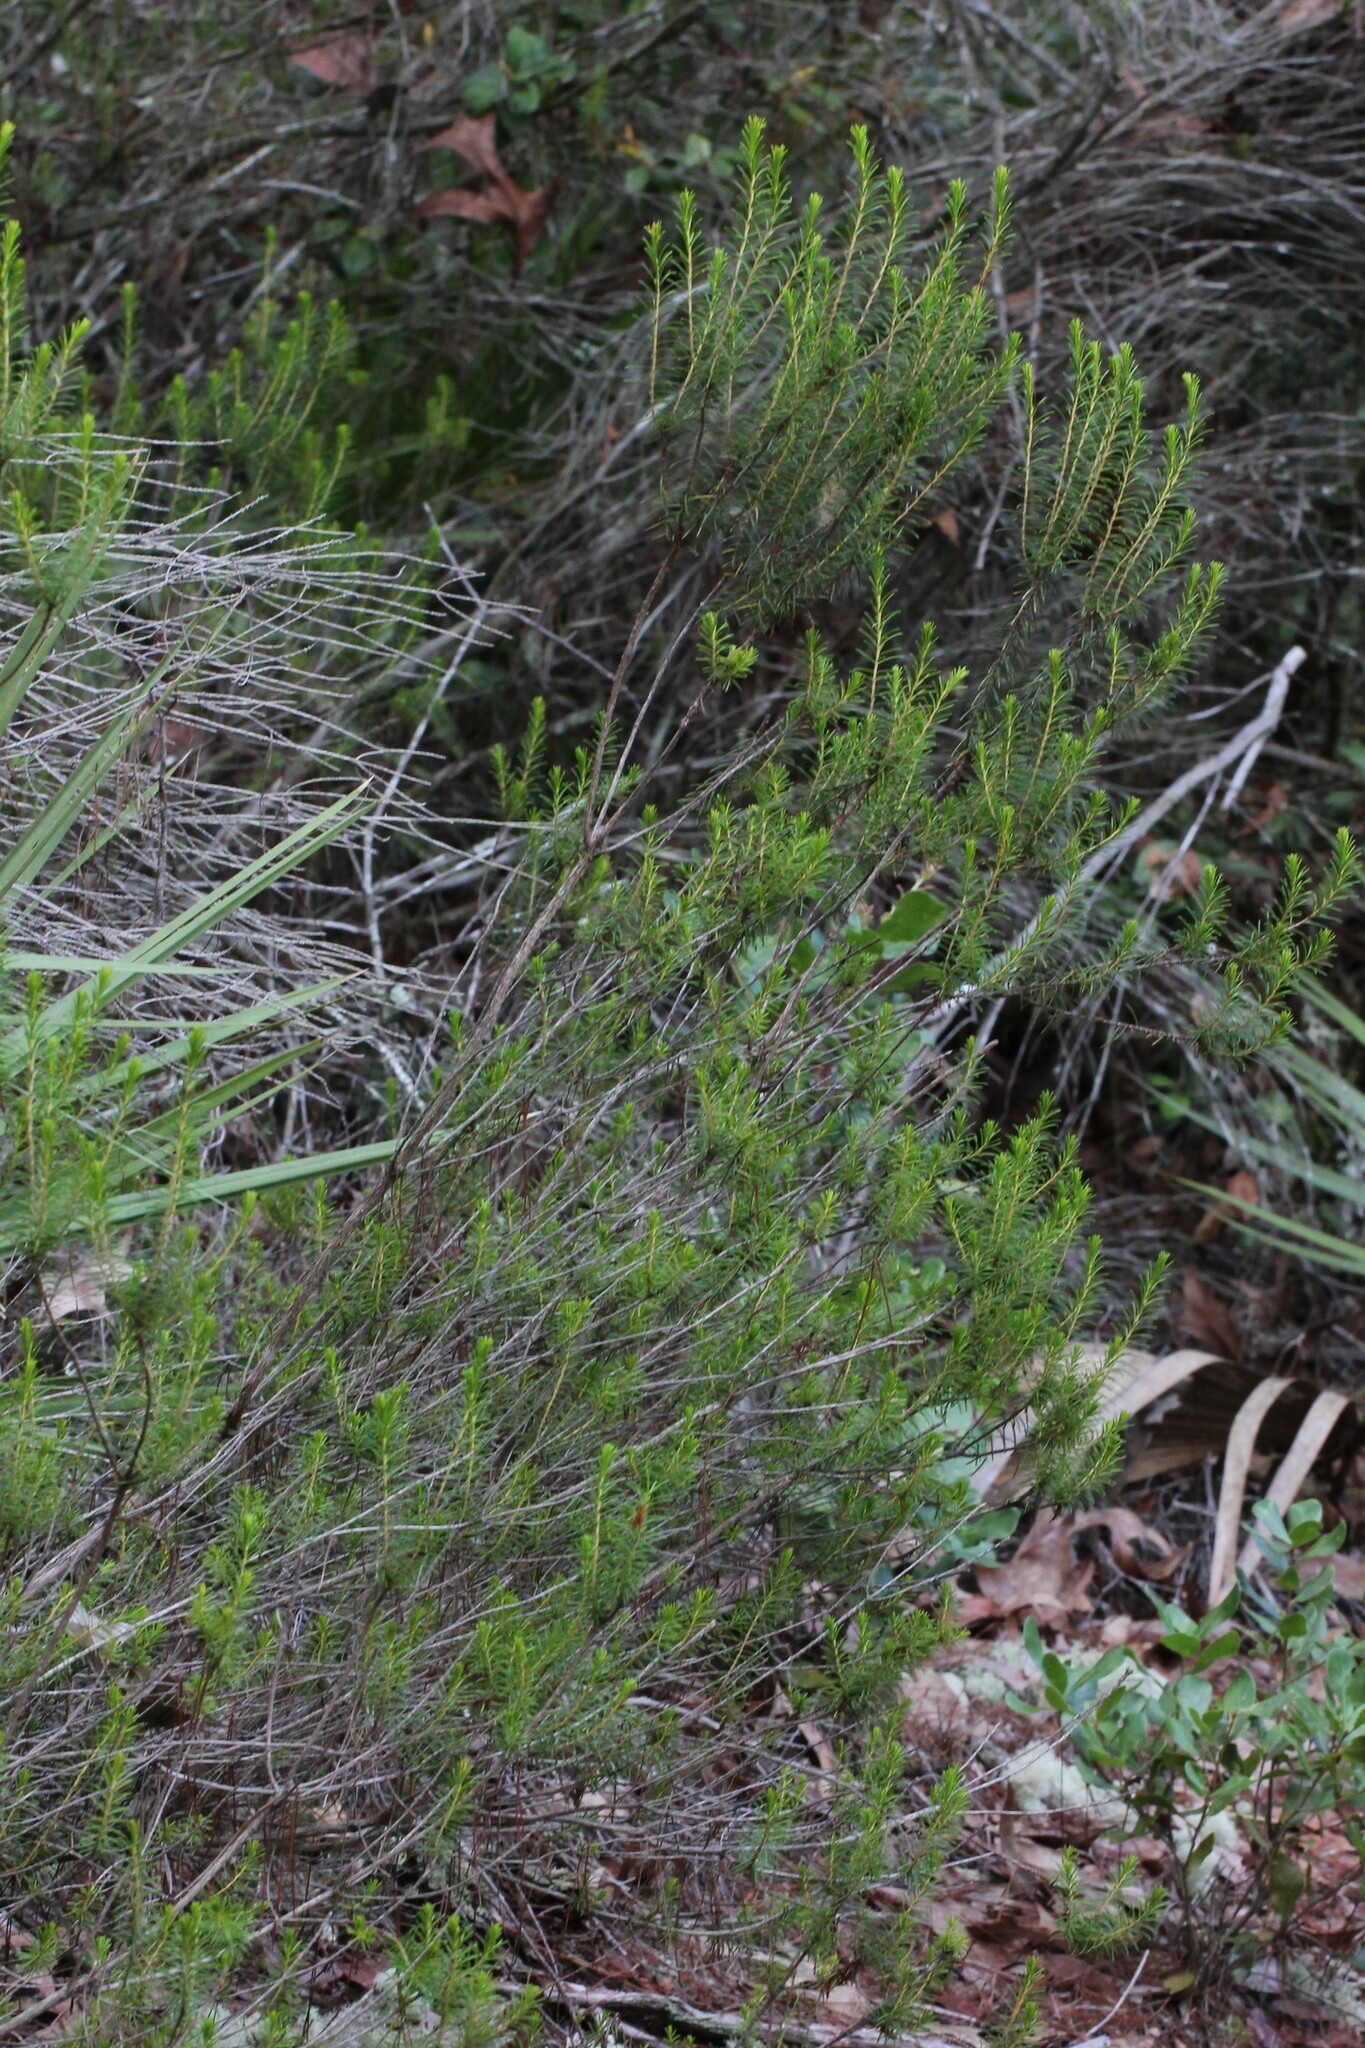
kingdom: Plantae
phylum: Tracheophyta
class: Magnoliopsida
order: Ericales
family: Ericaceae
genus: Ceratiola
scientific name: Ceratiola ericoides
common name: Sandhill-rosemary
